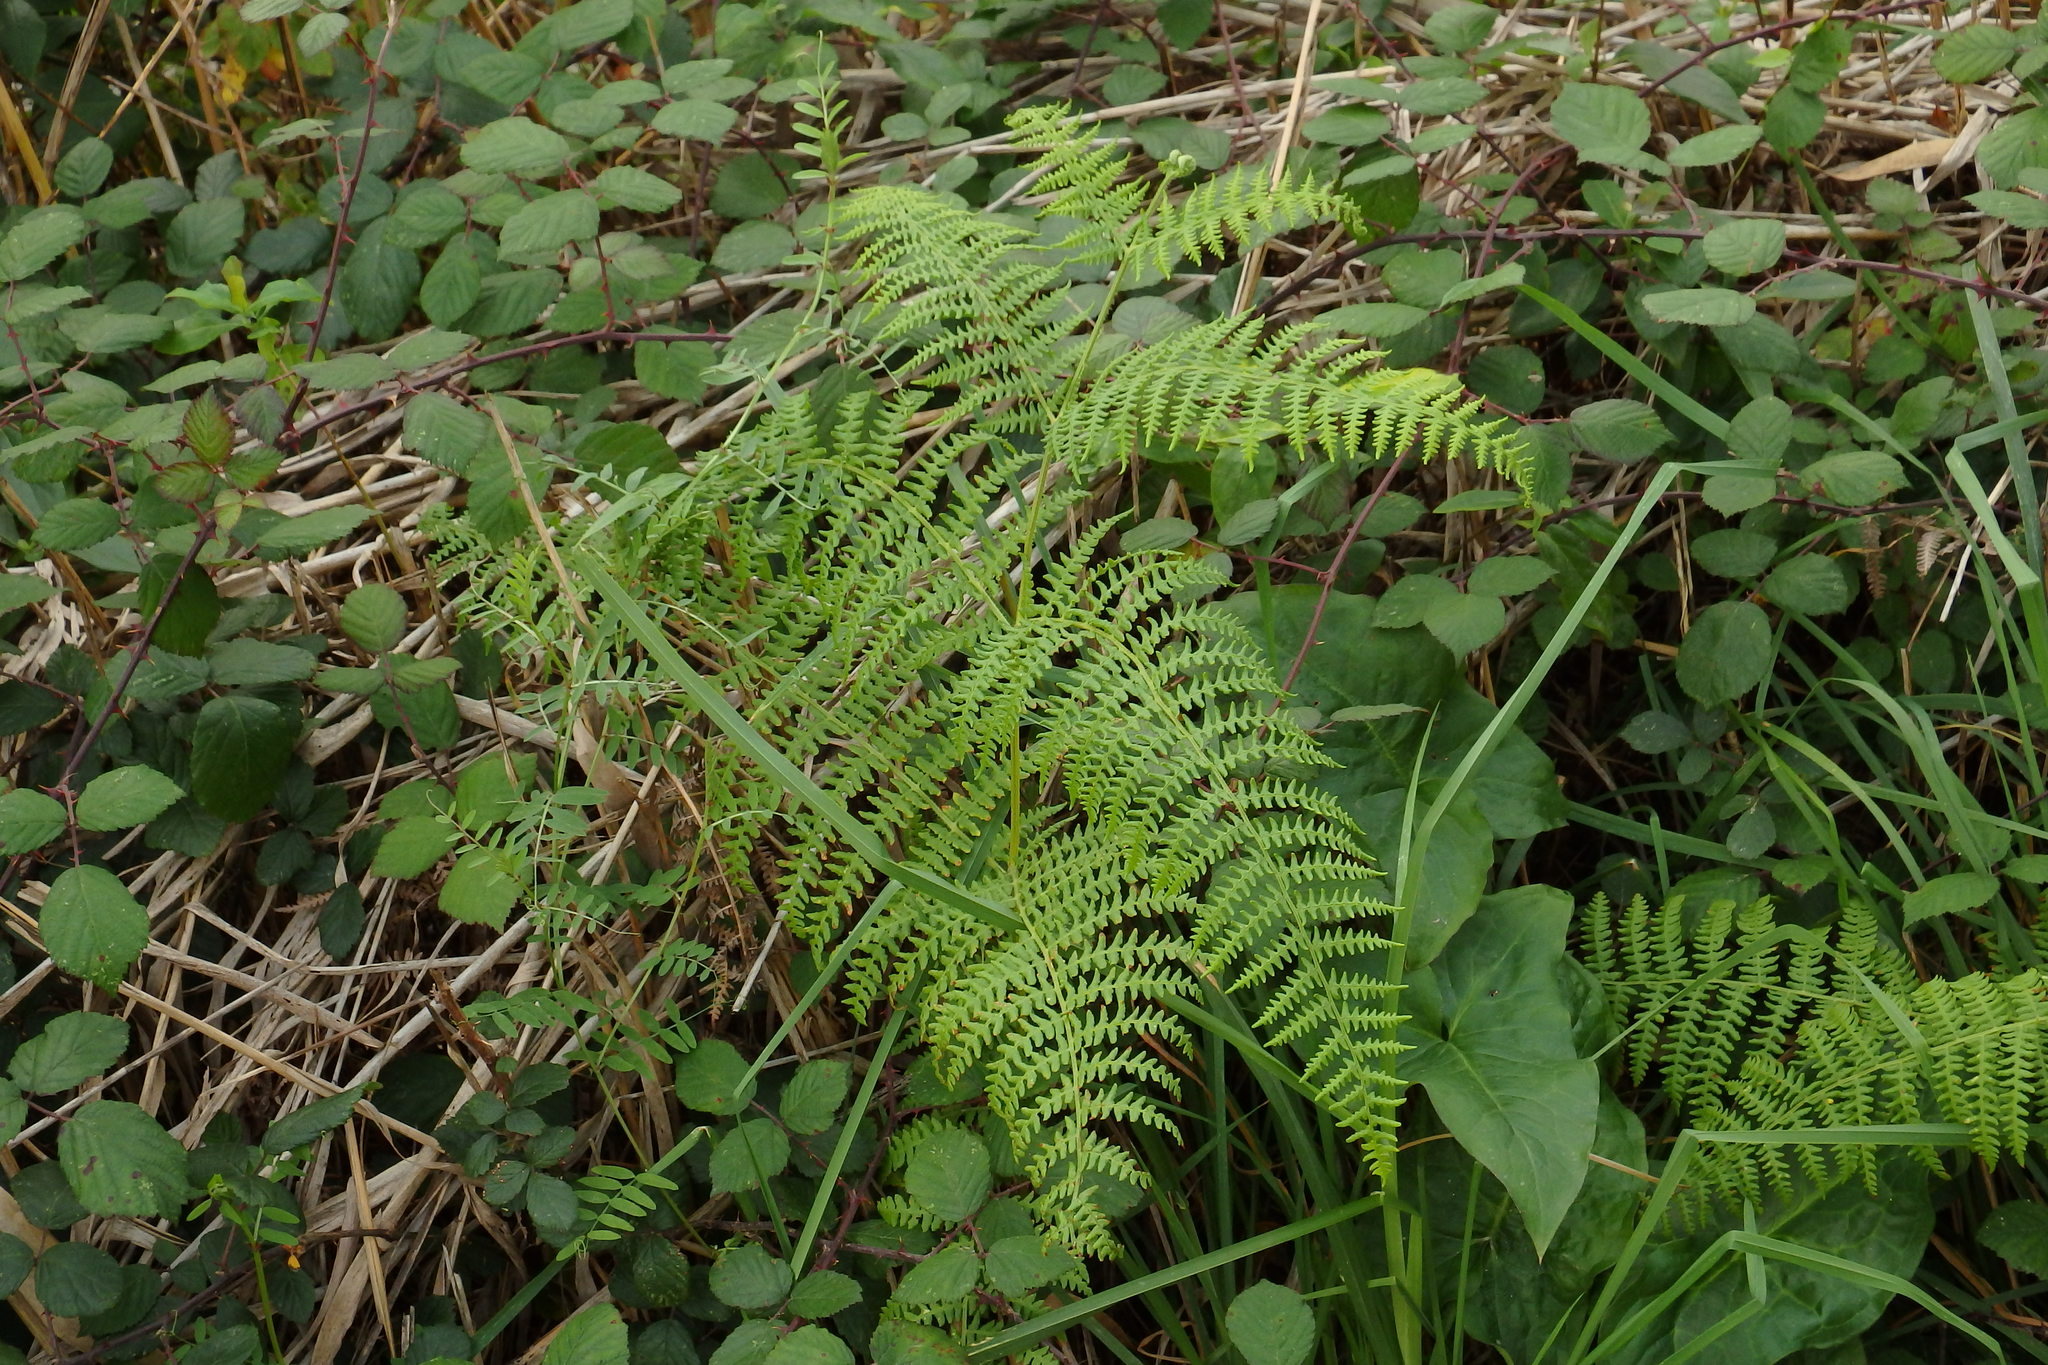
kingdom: Plantae
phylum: Tracheophyta
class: Polypodiopsida
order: Polypodiales
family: Dennstaedtiaceae
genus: Pteridium
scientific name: Pteridium aquilinum
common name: Bracken
